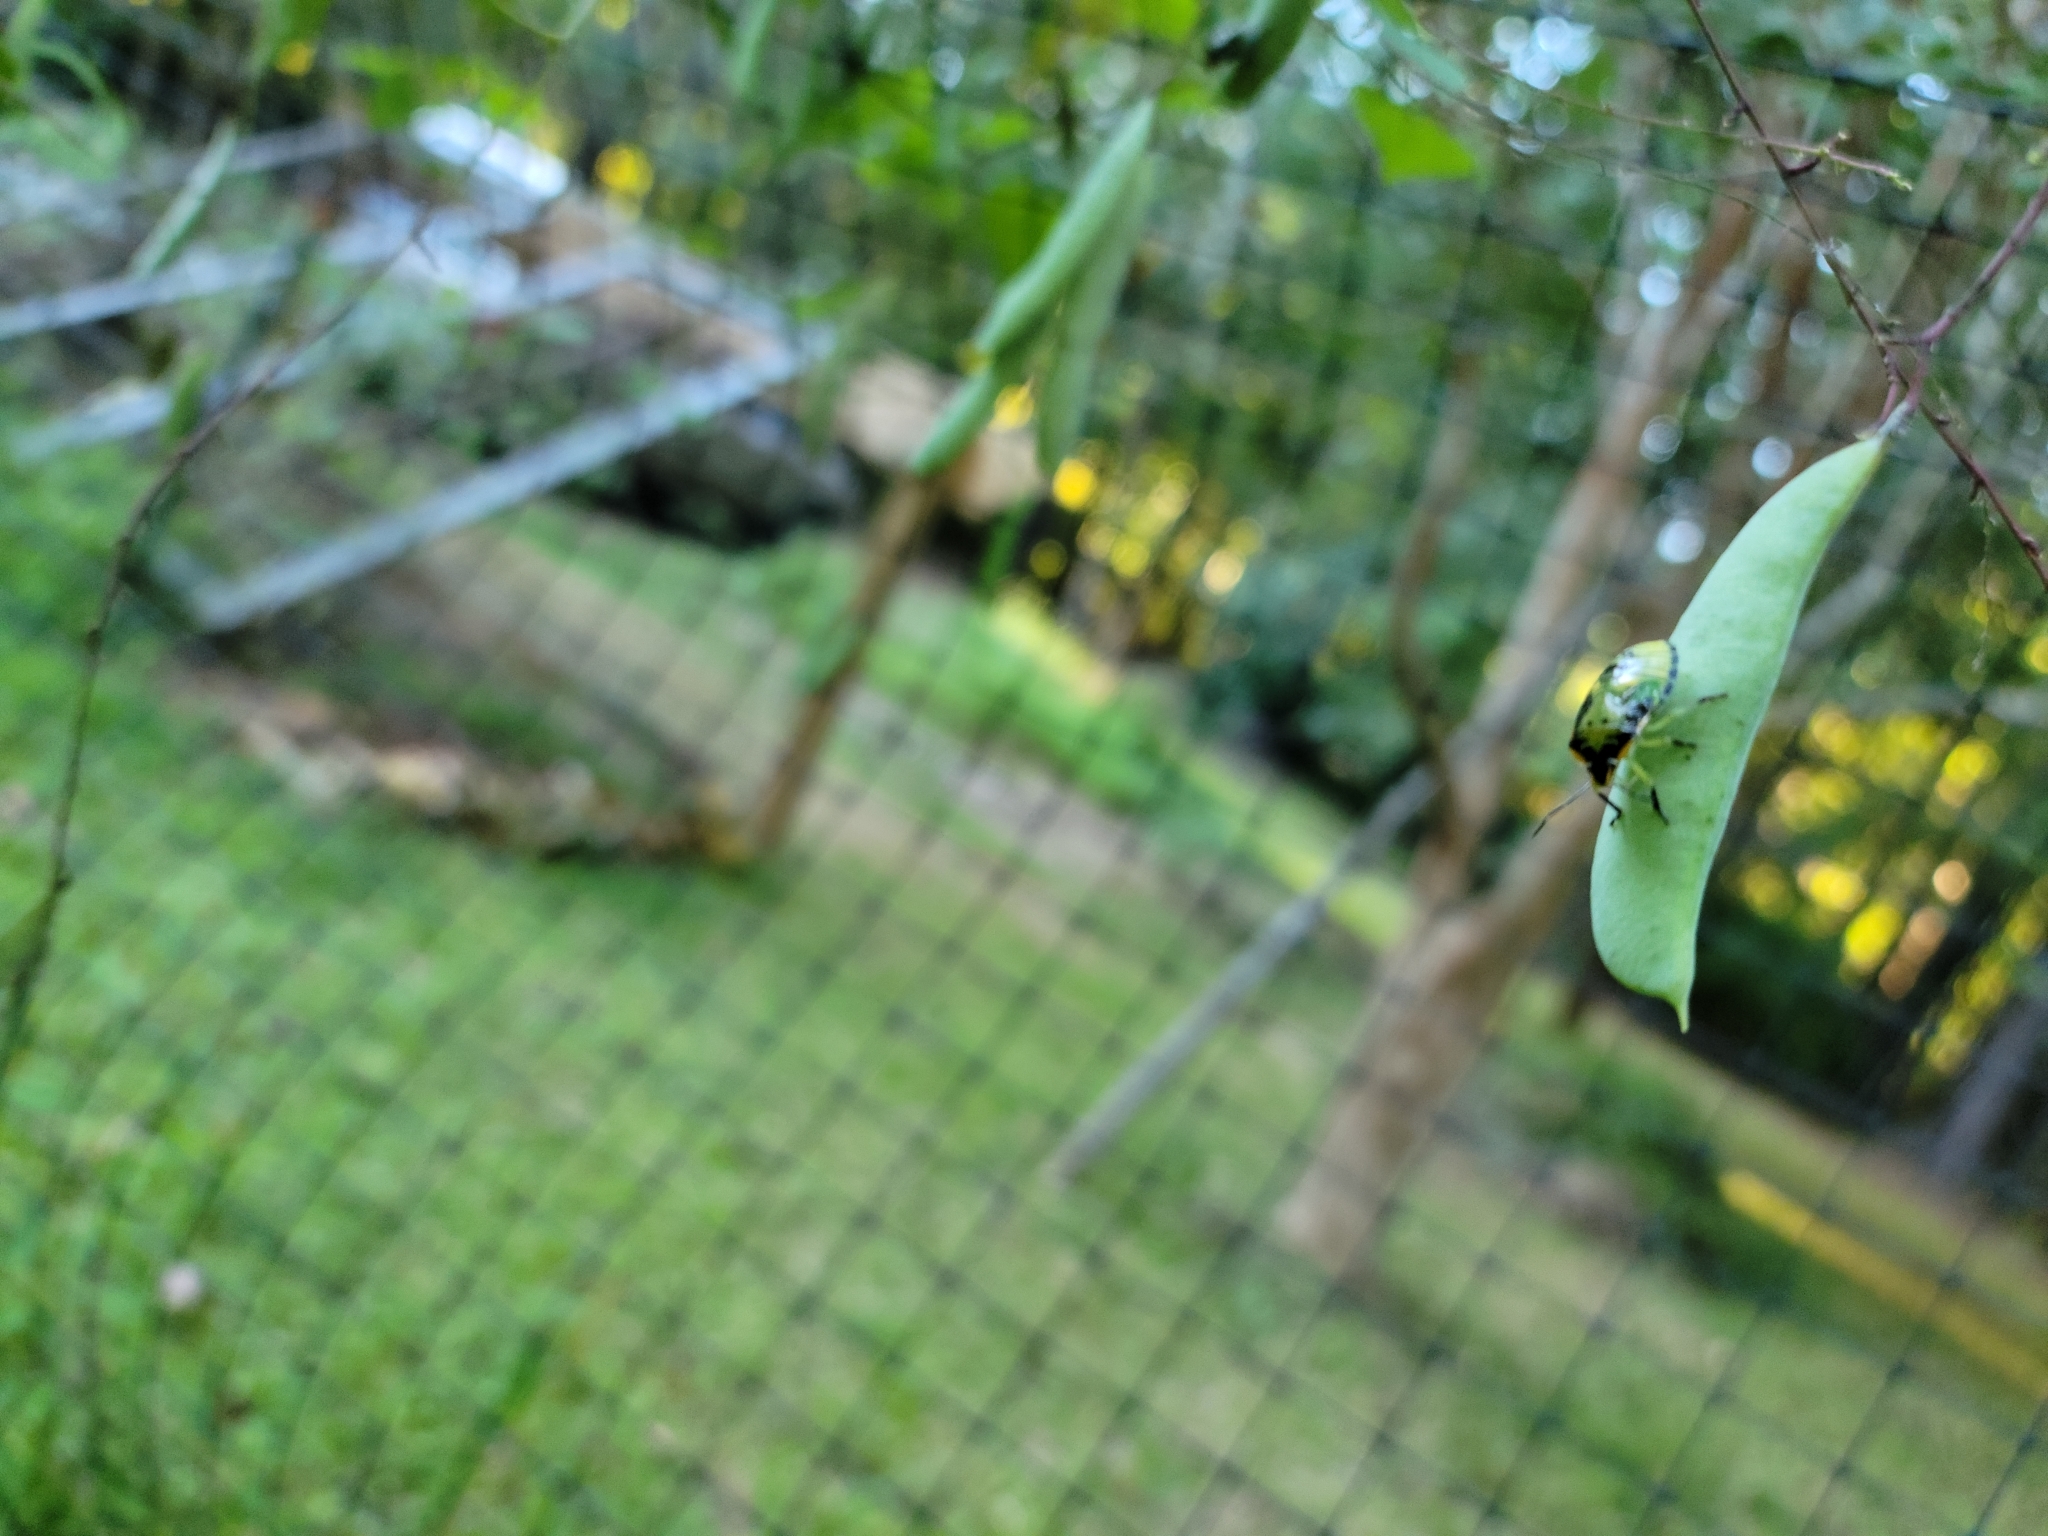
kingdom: Animalia
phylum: Arthropoda
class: Insecta
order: Hemiptera
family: Pentatomidae
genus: Chinavia
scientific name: Chinavia hilaris
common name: Green stink bug
